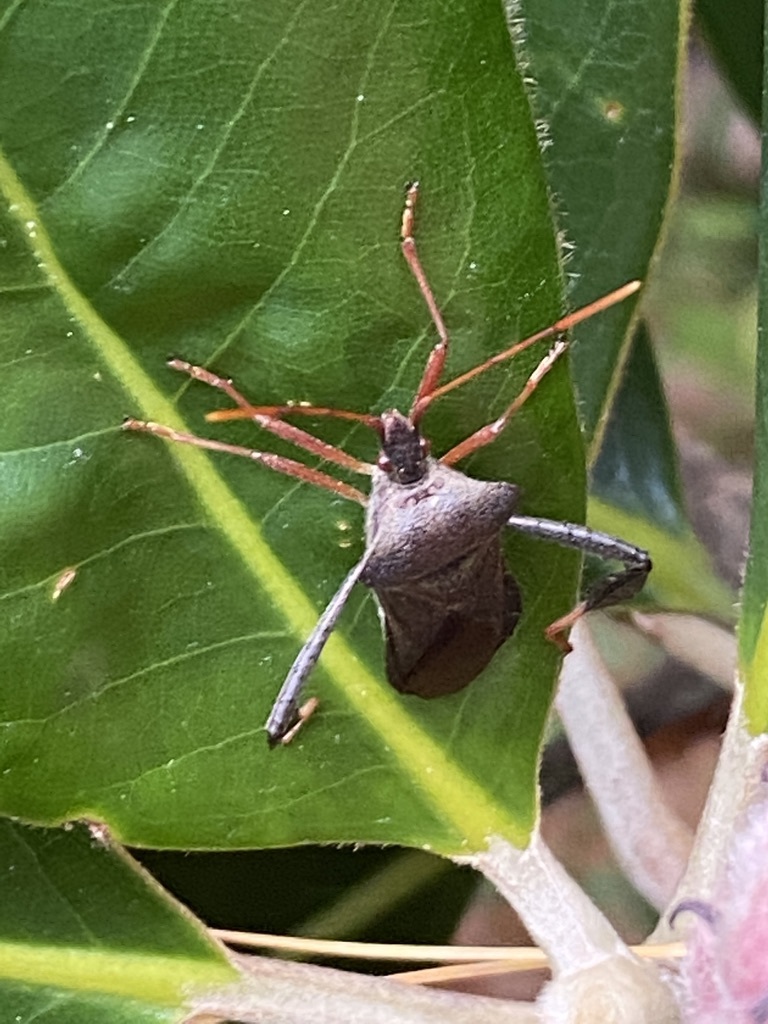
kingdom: Animalia
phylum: Arthropoda
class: Insecta
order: Hemiptera
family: Coreidae
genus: Leptoglossus
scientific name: Leptoglossus fulvicornis
